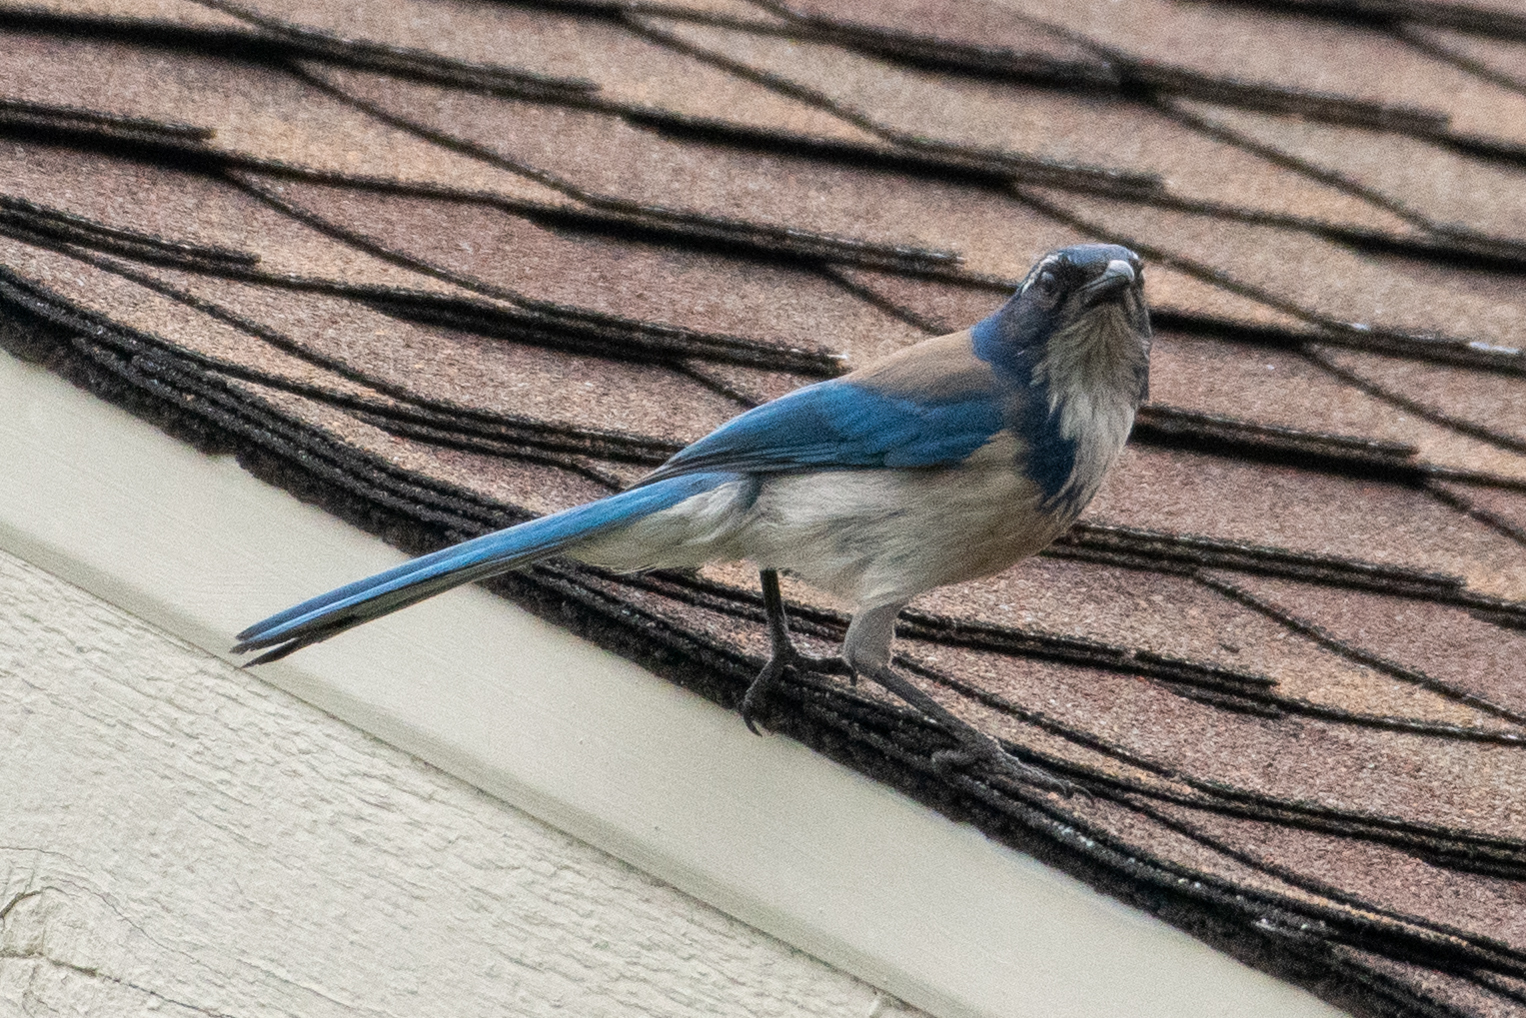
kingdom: Animalia
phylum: Chordata
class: Aves
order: Passeriformes
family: Corvidae
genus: Aphelocoma
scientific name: Aphelocoma californica
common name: California scrub-jay
